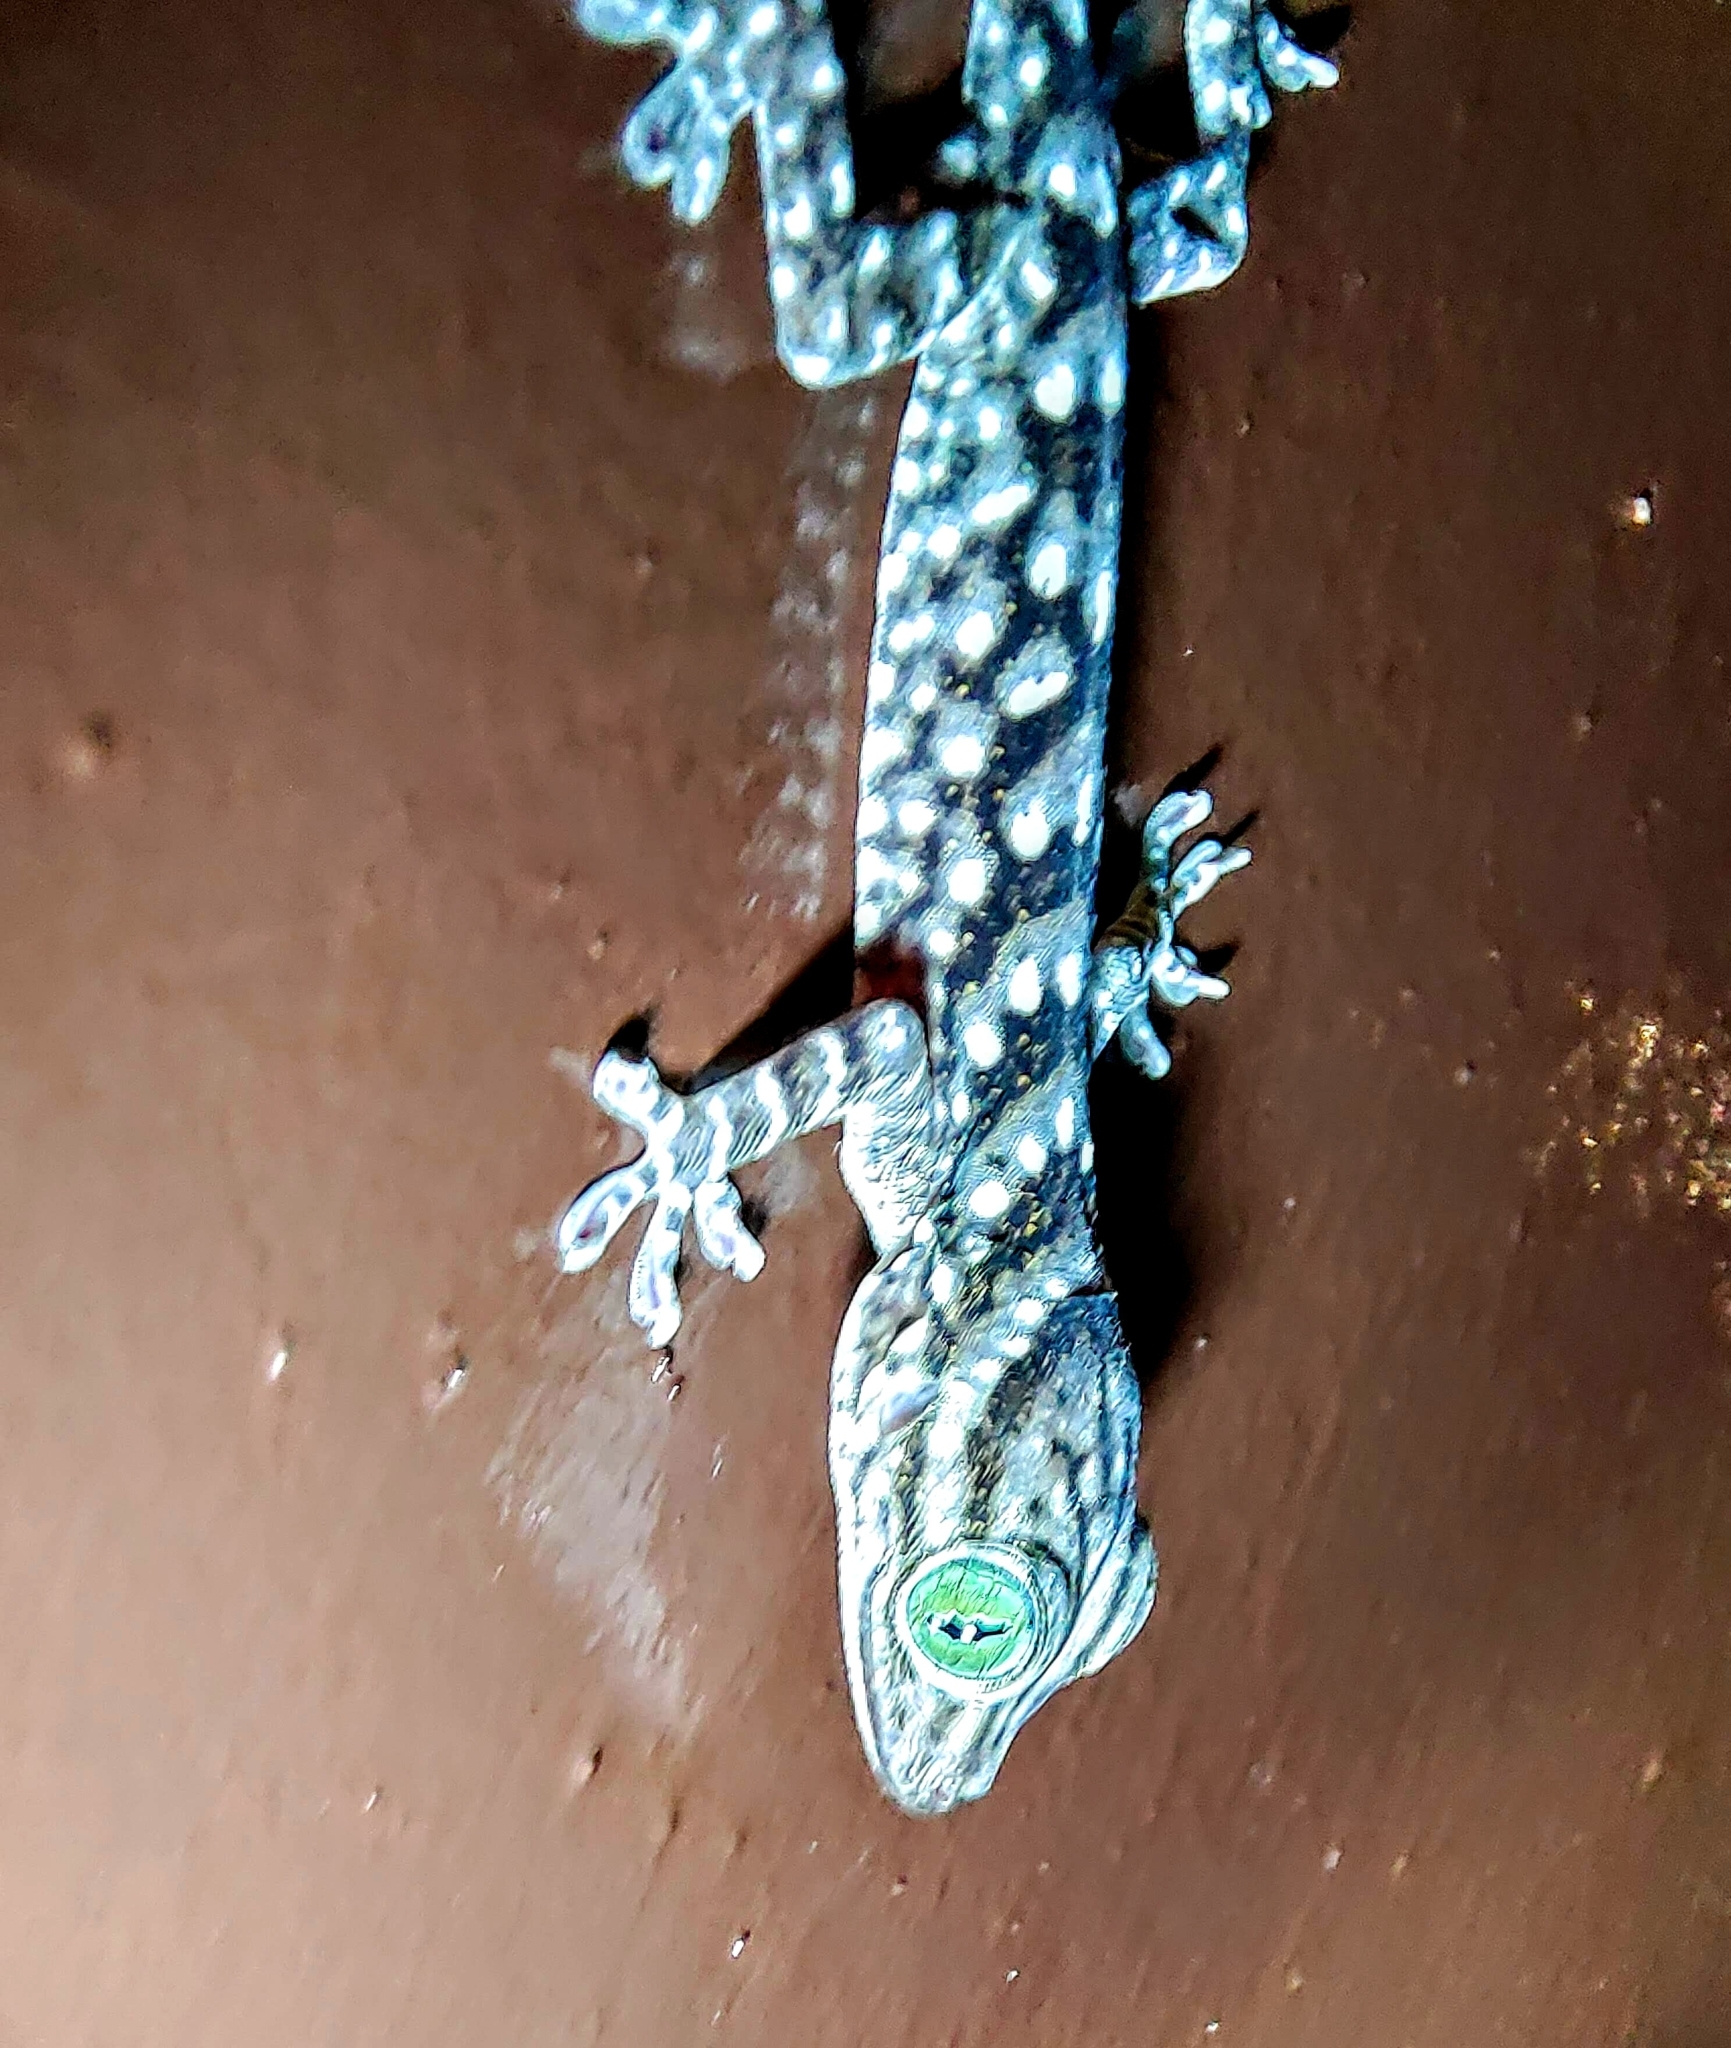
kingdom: Animalia
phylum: Chordata
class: Squamata
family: Gekkonidae
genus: Gekko
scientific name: Gekko smithii
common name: Large forest gecko
